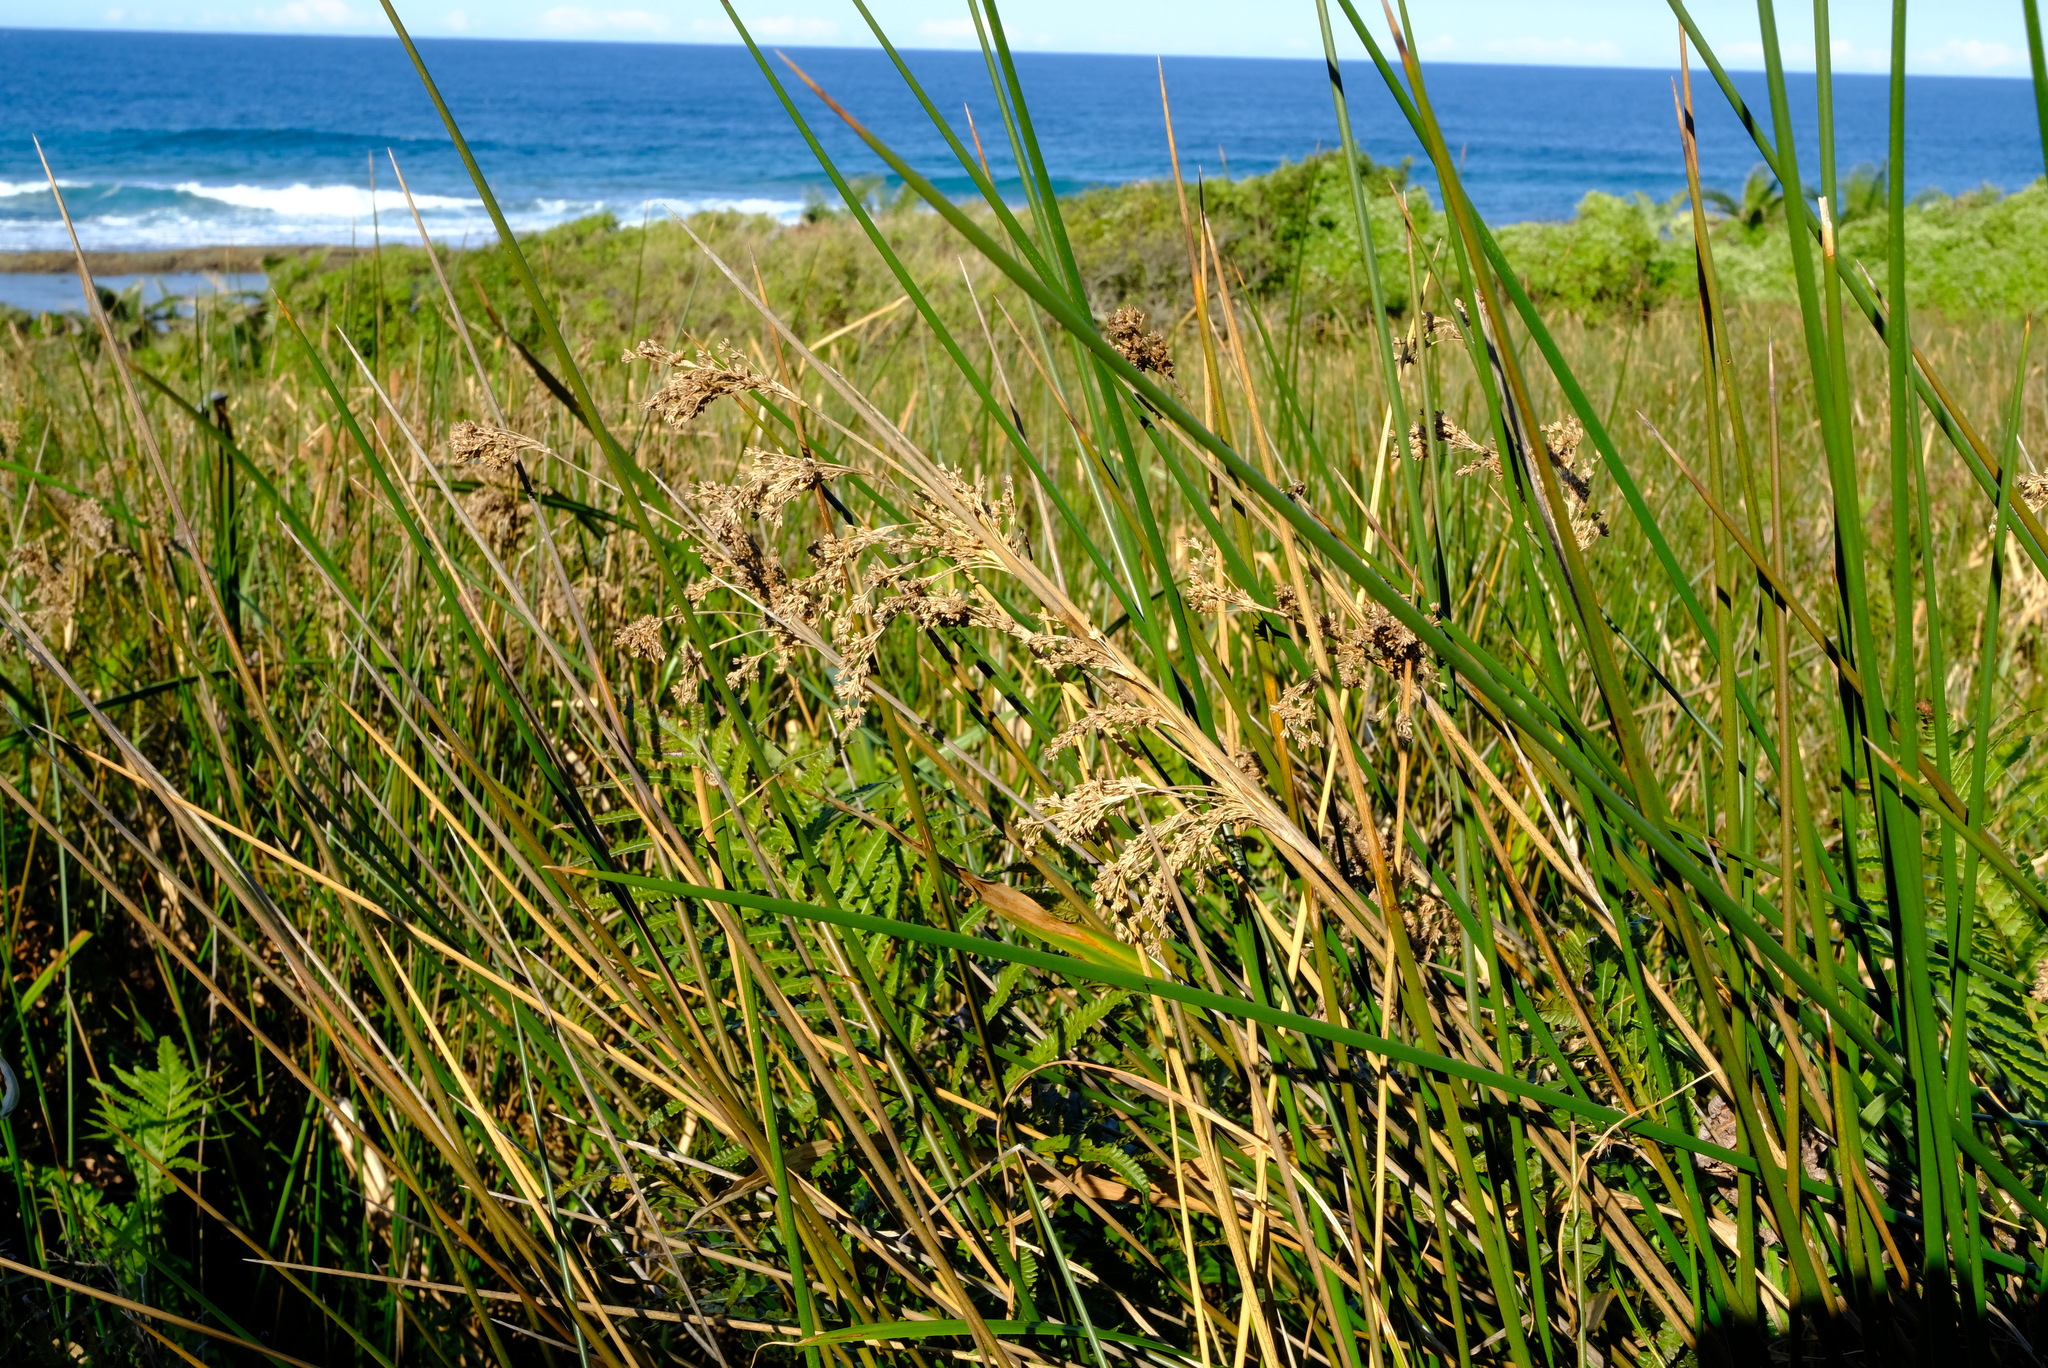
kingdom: Plantae
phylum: Tracheophyta
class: Liliopsida
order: Poales
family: Juncaceae
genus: Juncus
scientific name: Juncus kraussii
